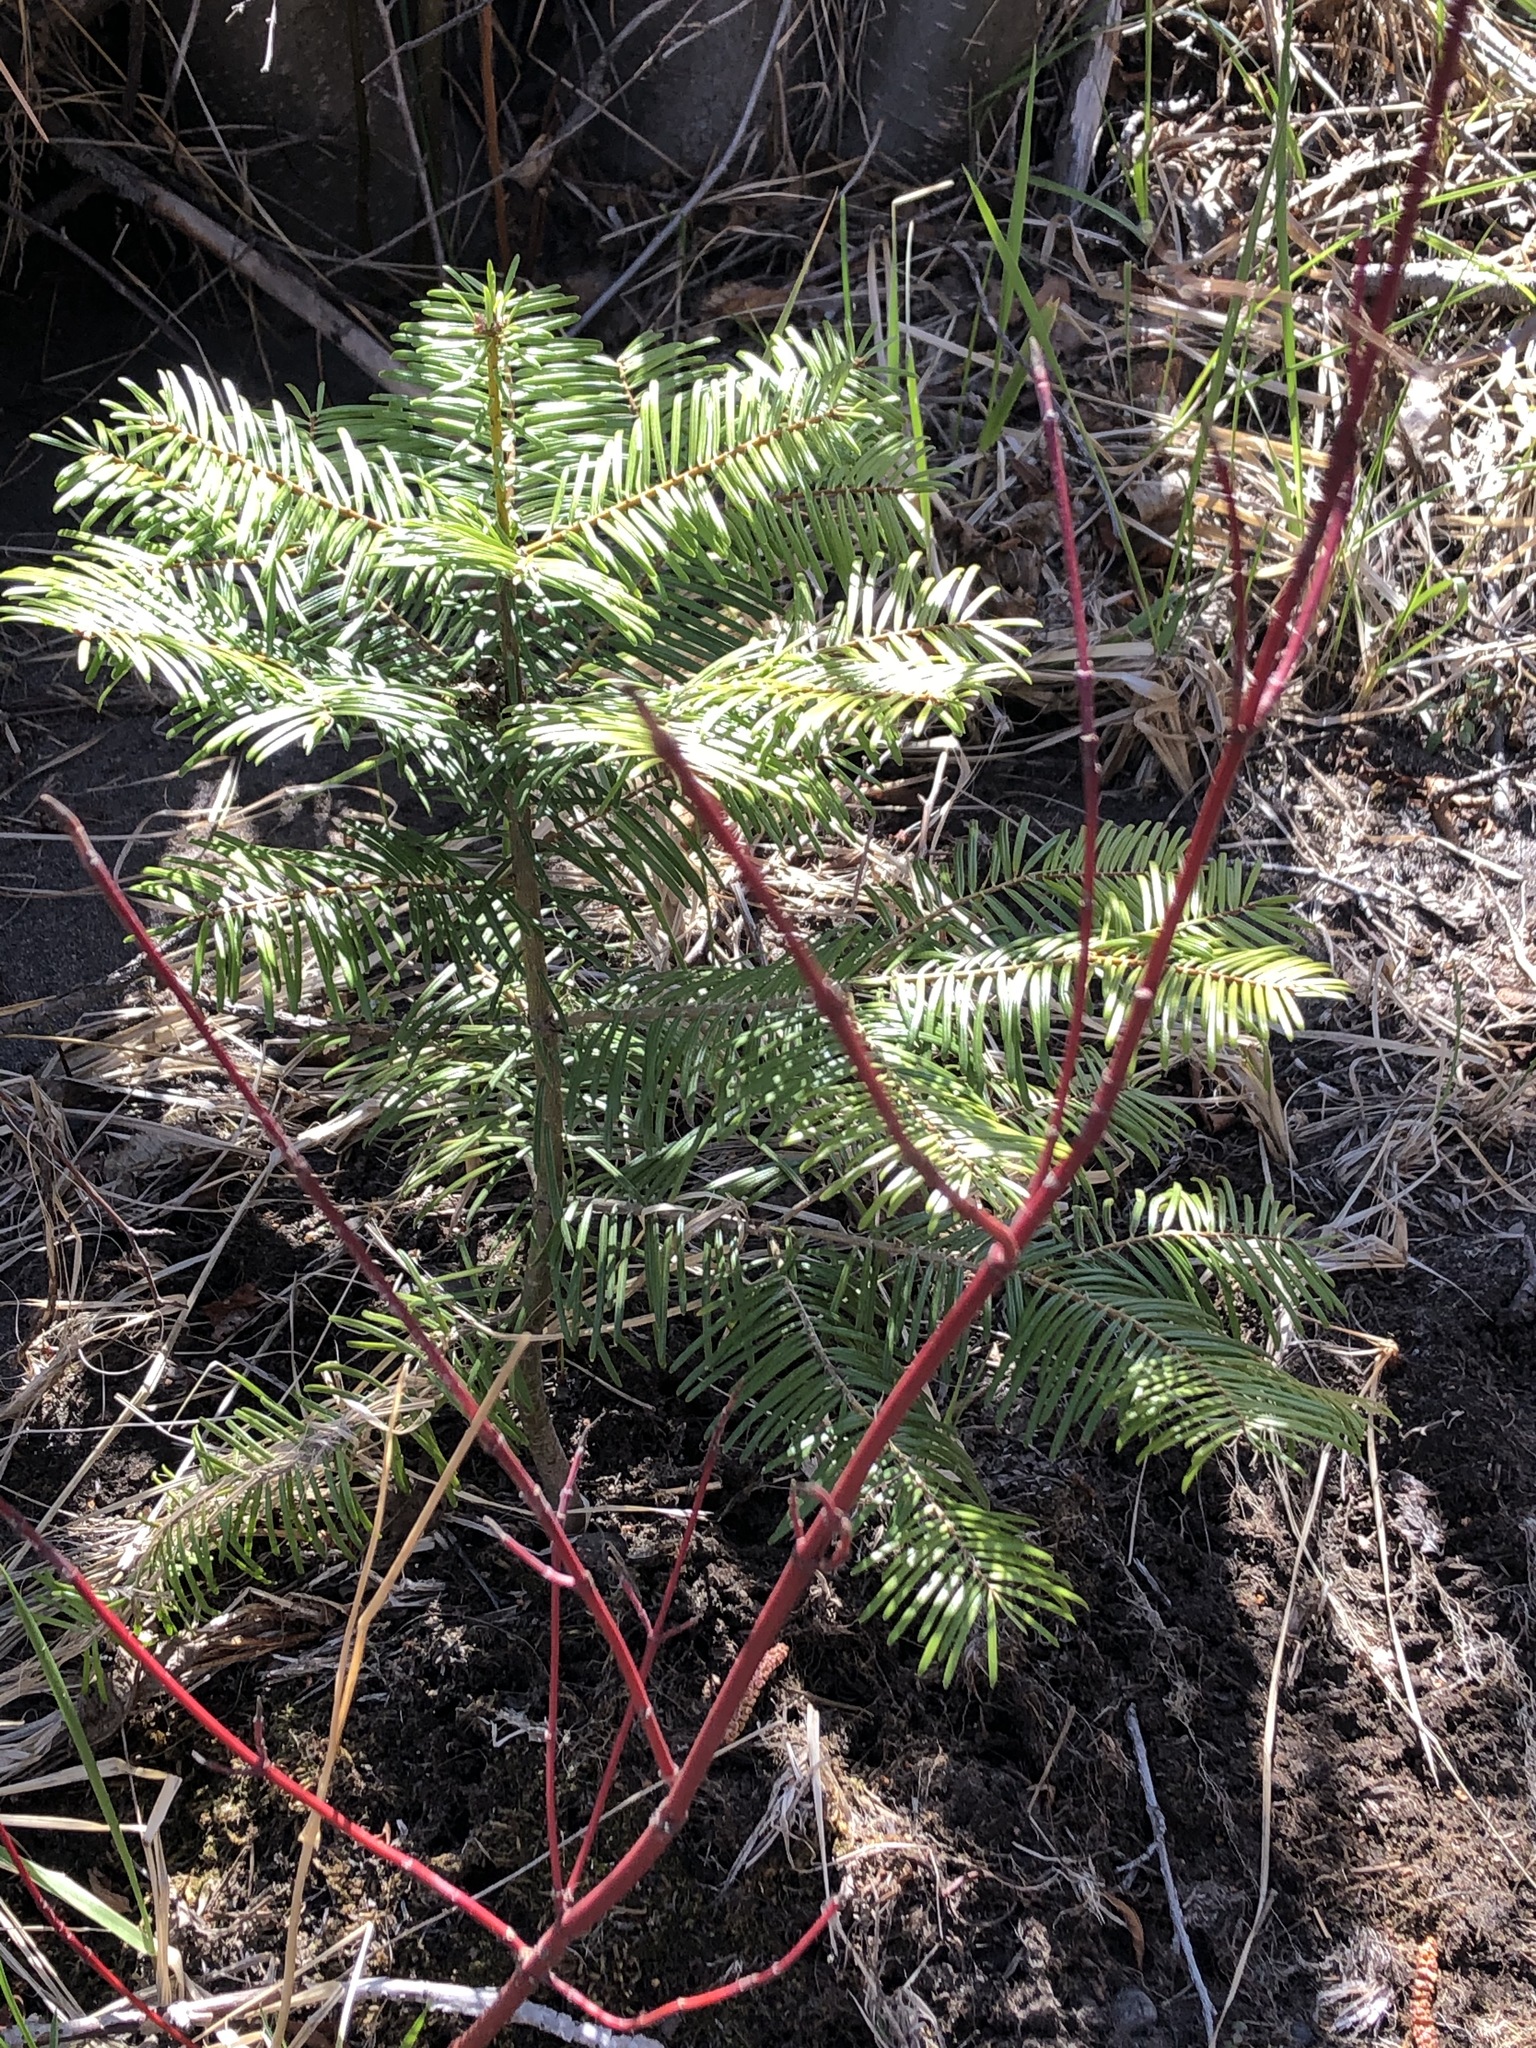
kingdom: Plantae
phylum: Tracheophyta
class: Pinopsida
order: Pinales
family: Pinaceae
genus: Abies
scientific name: Abies grandis
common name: Giant fir
